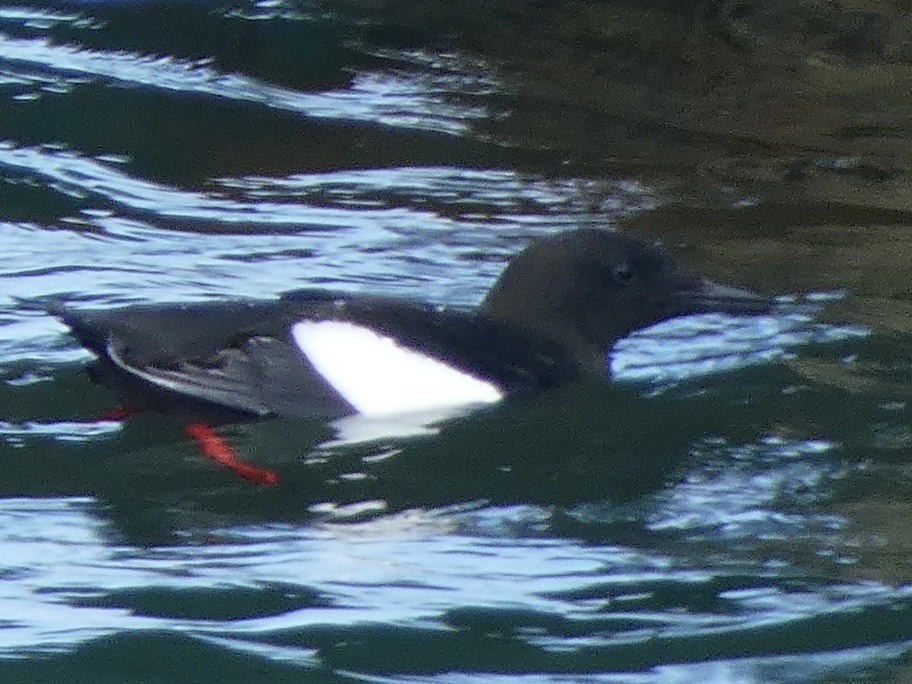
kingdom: Animalia
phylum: Chordata
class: Aves
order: Charadriiformes
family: Alcidae
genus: Cepphus
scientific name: Cepphus grylle
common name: Black guillemot
